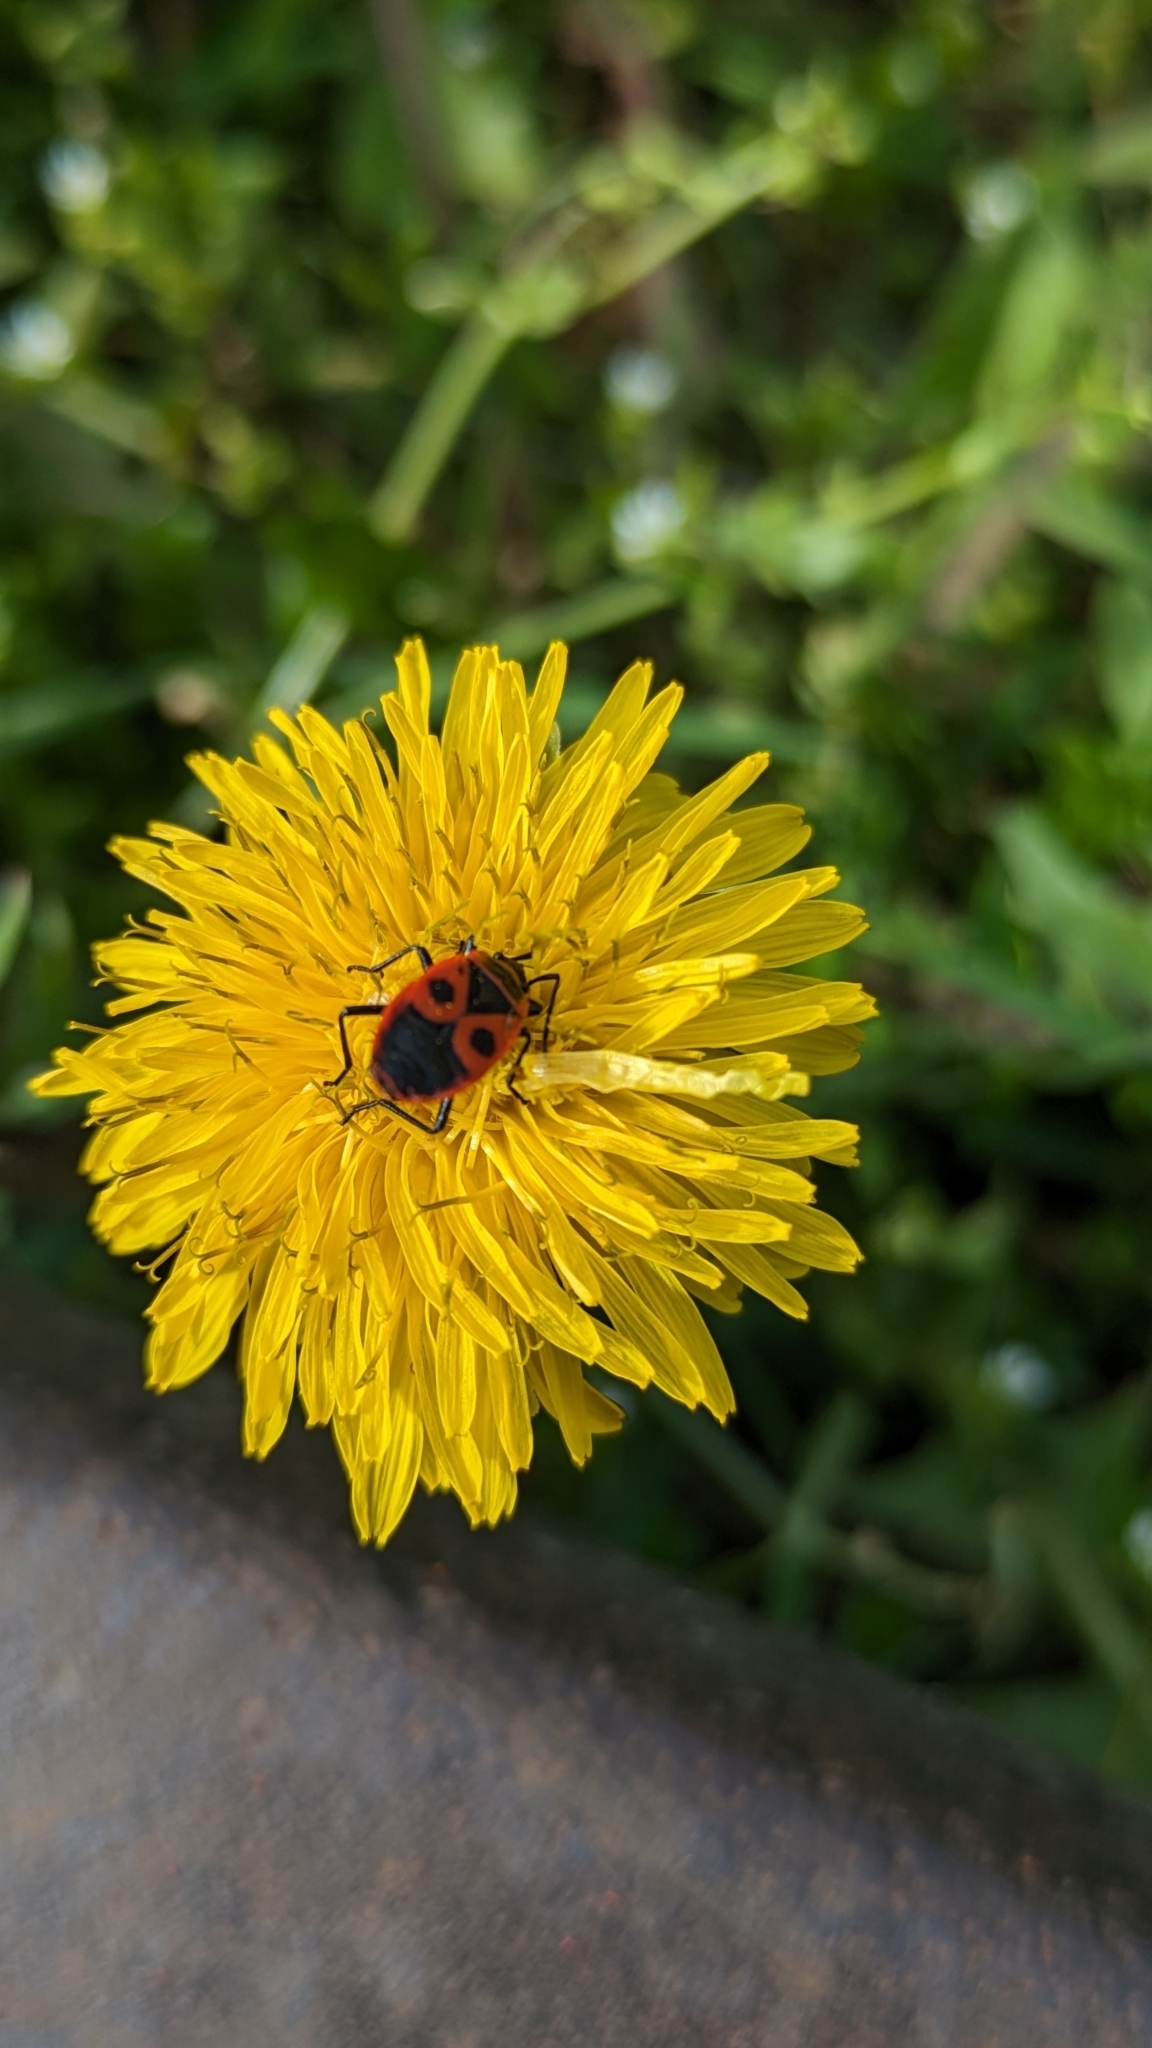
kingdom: Animalia
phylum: Arthropoda
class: Insecta
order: Hemiptera
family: Pyrrhocoridae
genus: Pyrrhocoris
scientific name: Pyrrhocoris apterus
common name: Firebug
